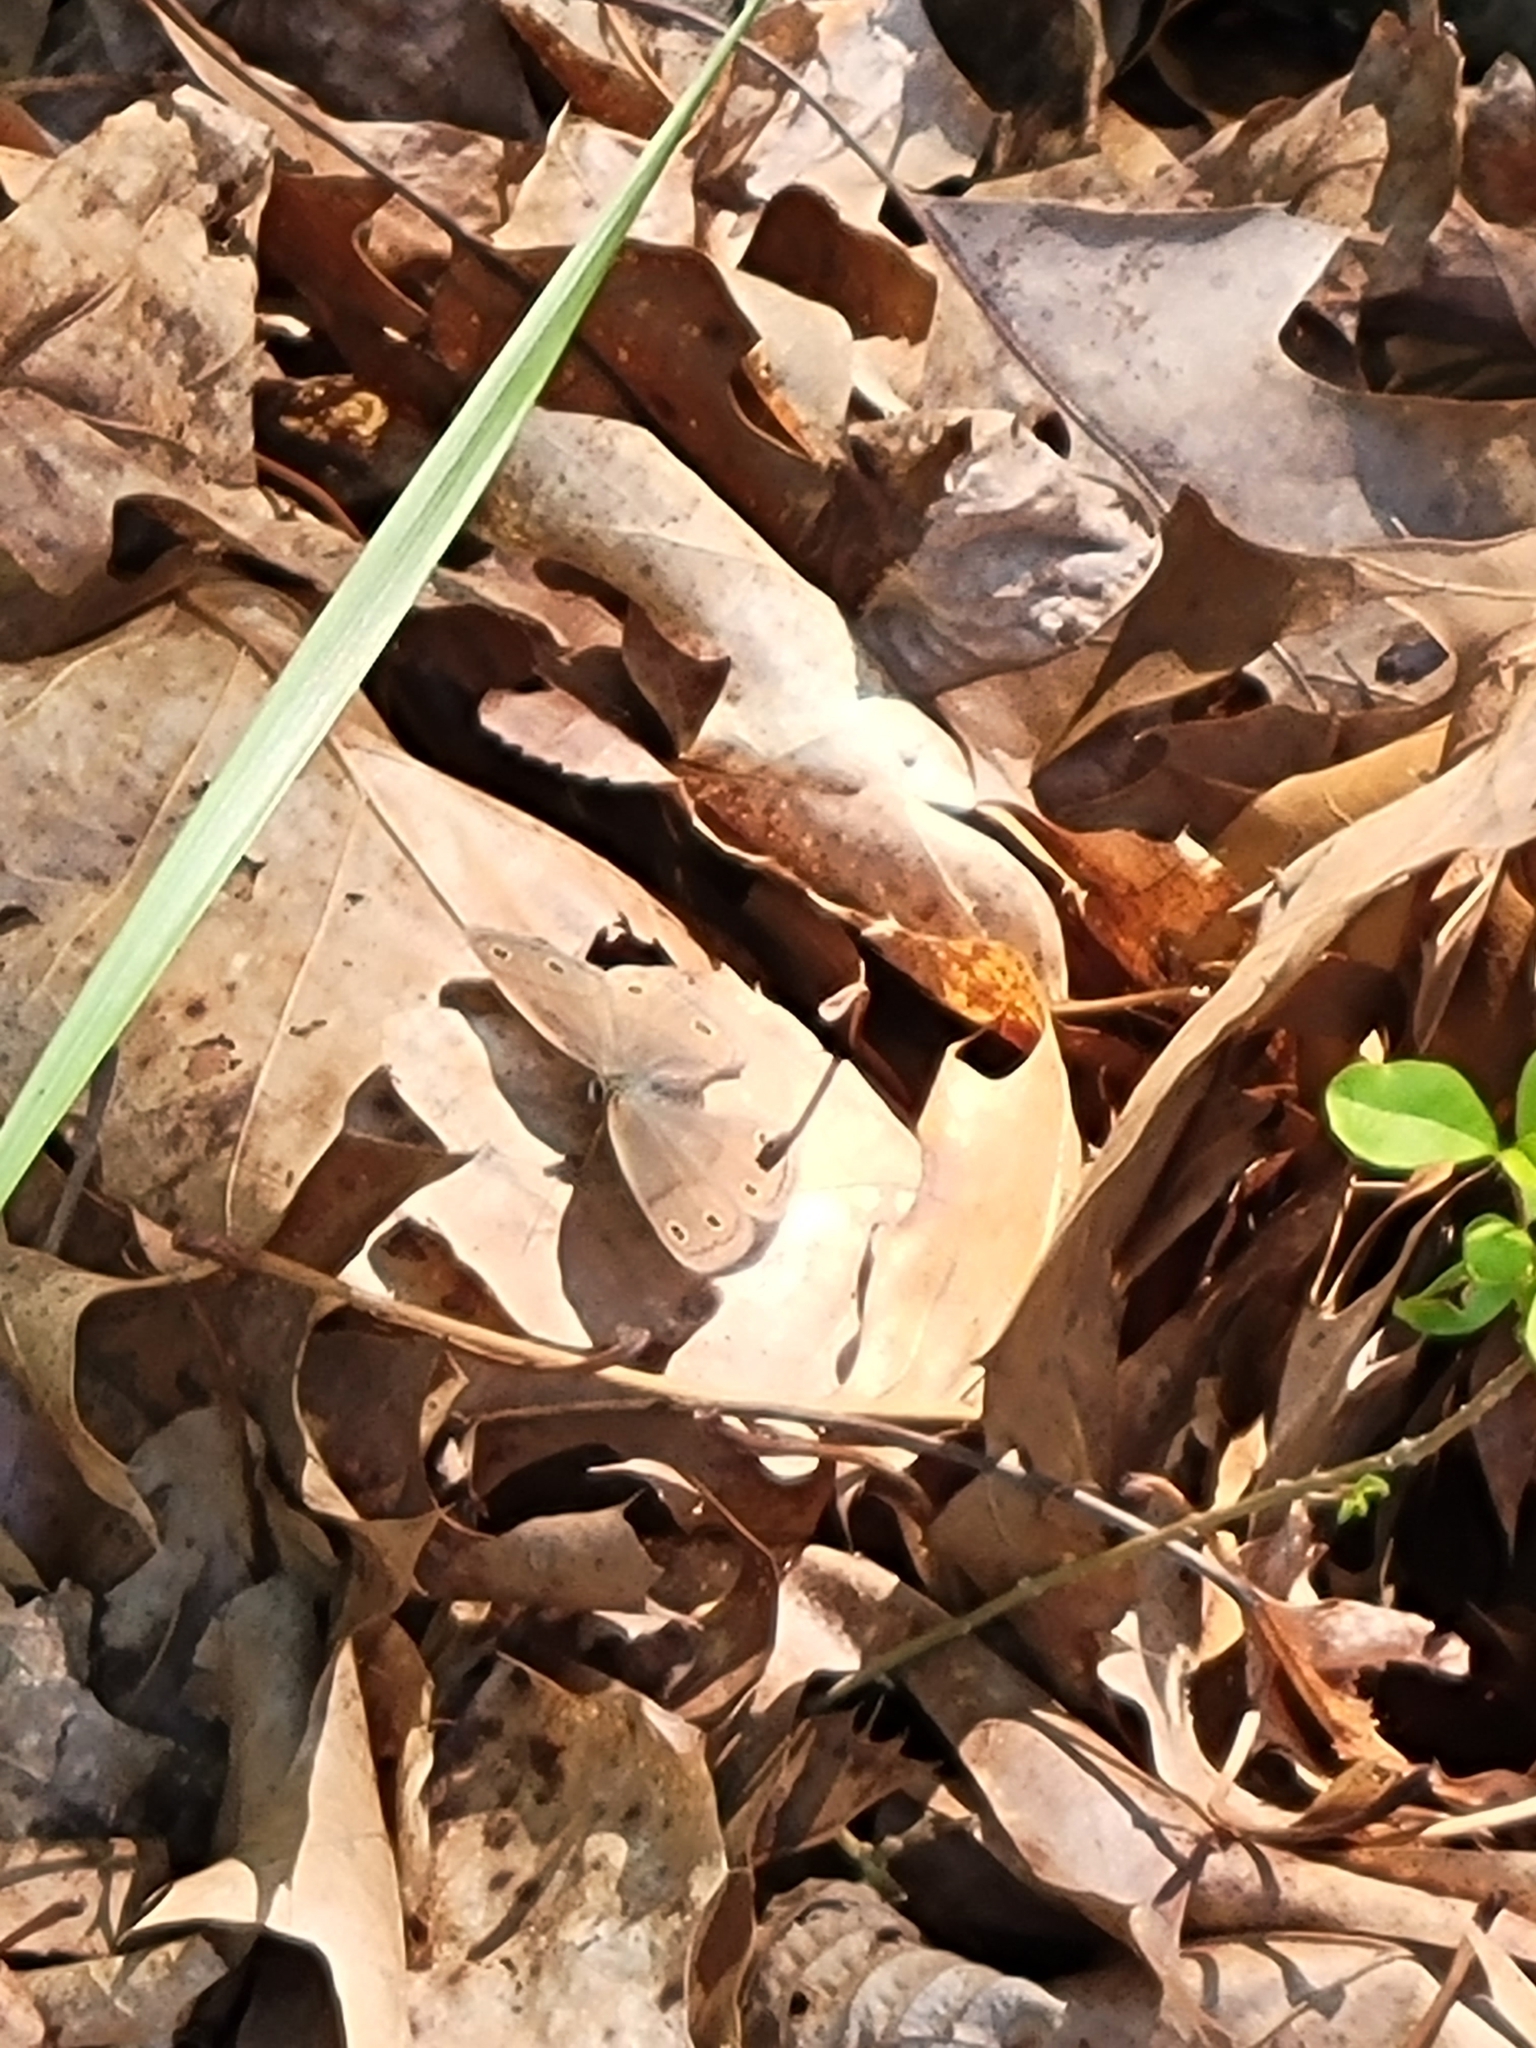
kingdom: Animalia
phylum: Arthropoda
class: Insecta
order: Lepidoptera
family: Nymphalidae
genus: Euptychia
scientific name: Euptychia cymela
